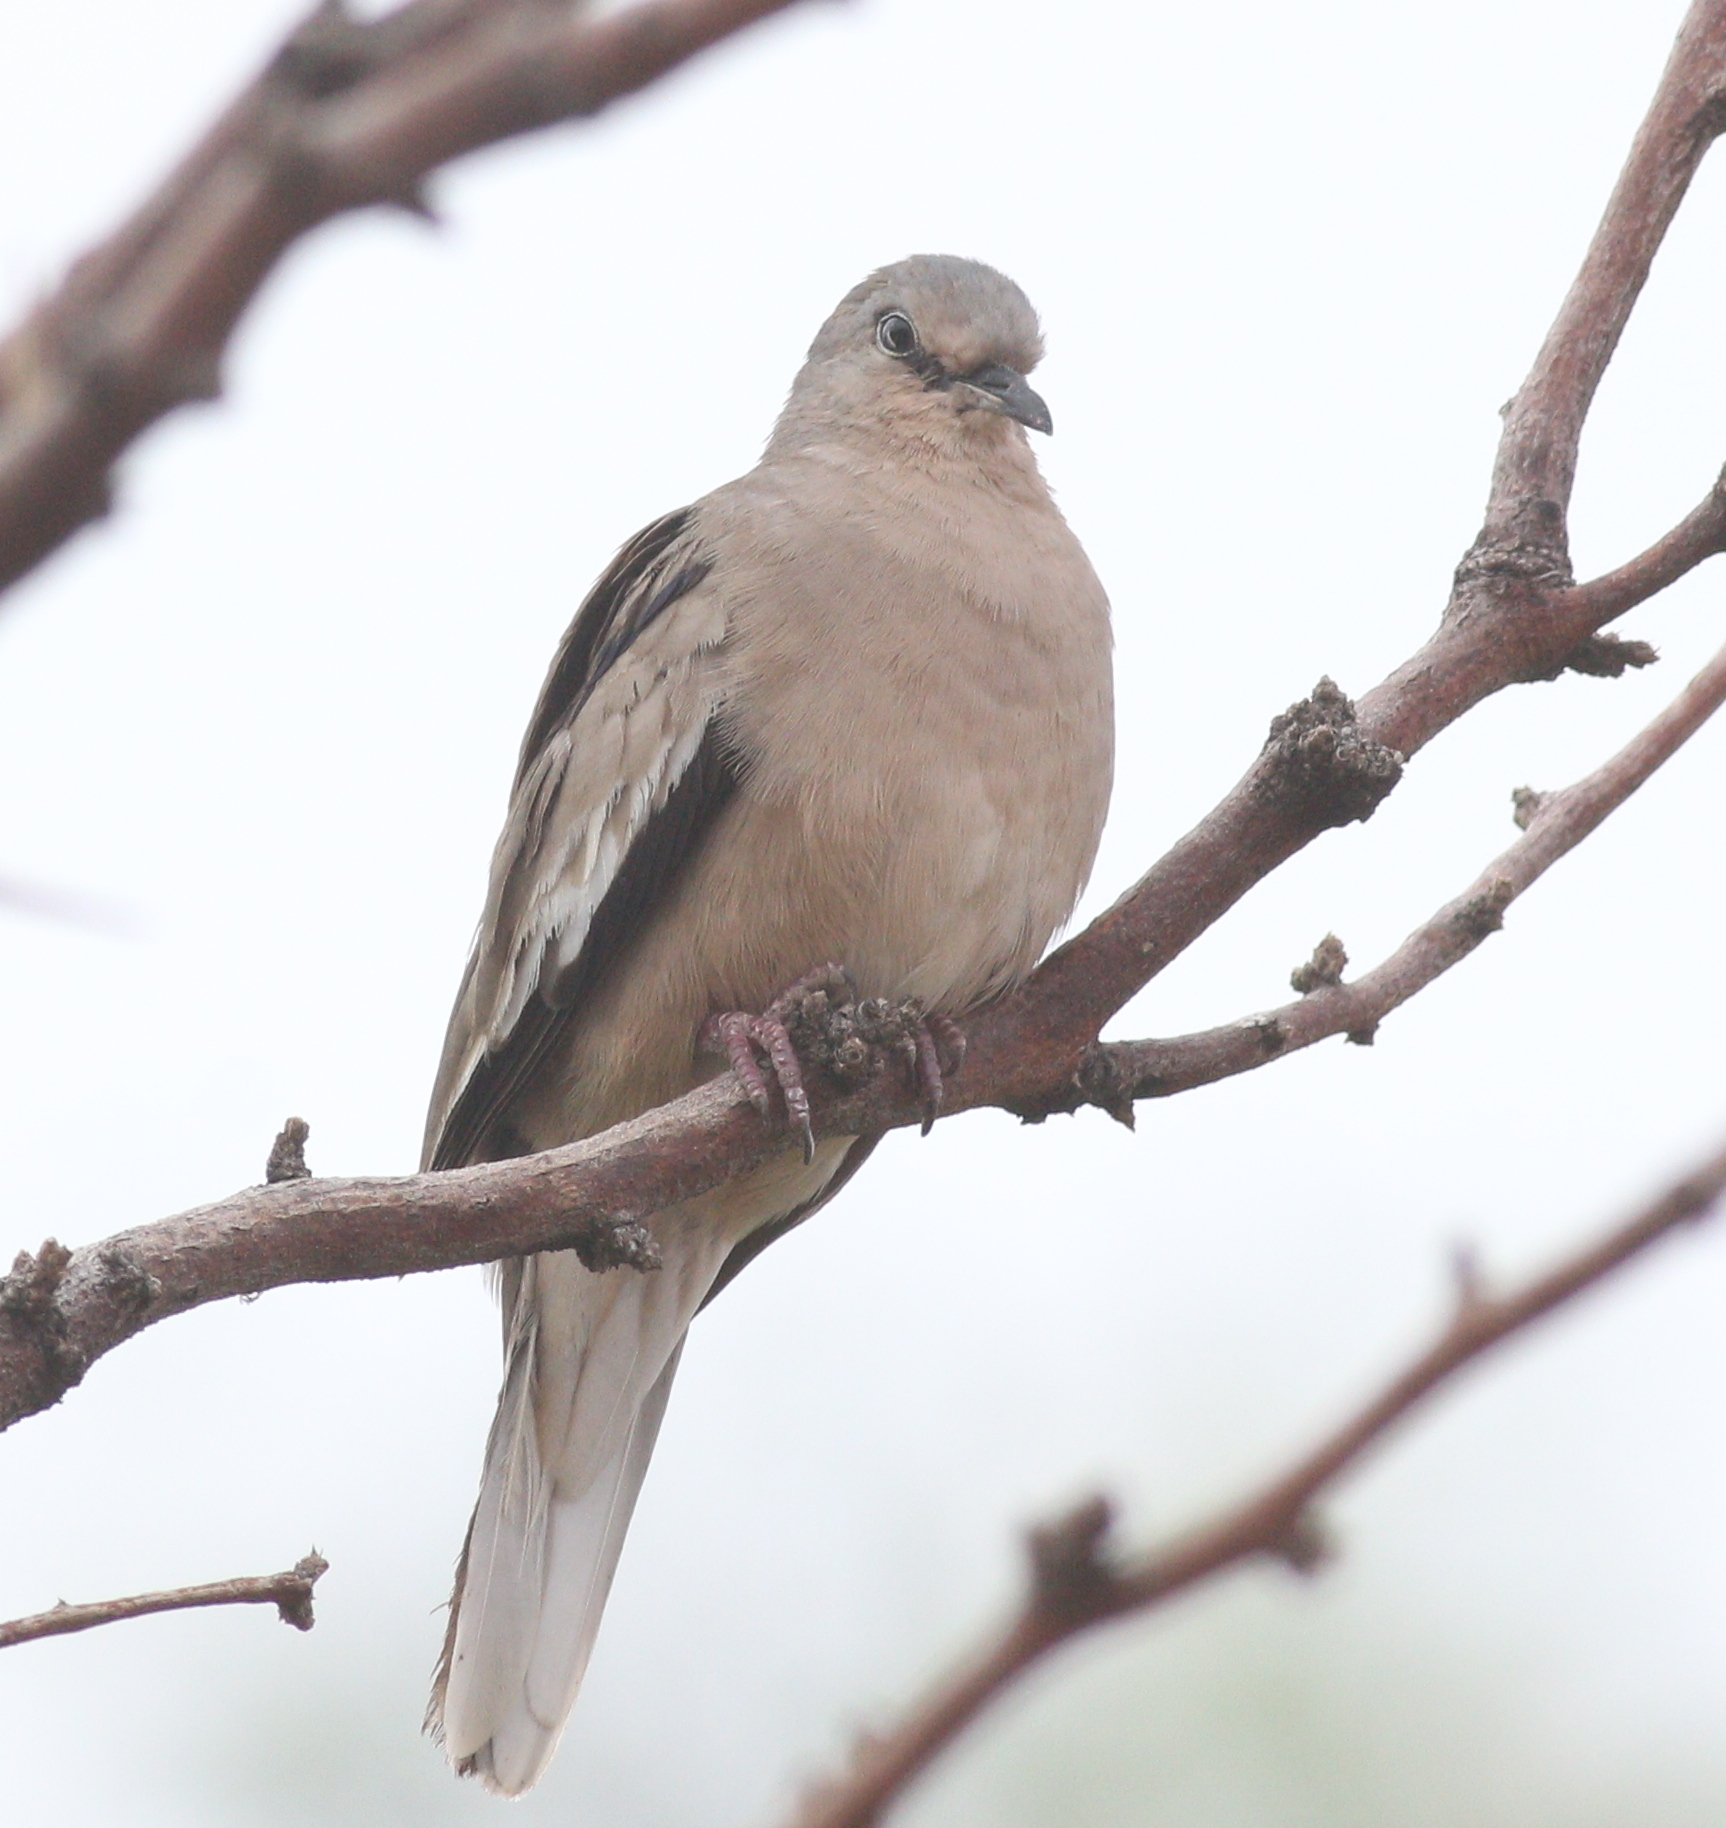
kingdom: Animalia
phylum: Chordata
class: Aves
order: Columbiformes
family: Columbidae
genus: Columbina
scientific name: Columbina picui
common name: Picui ground dove
